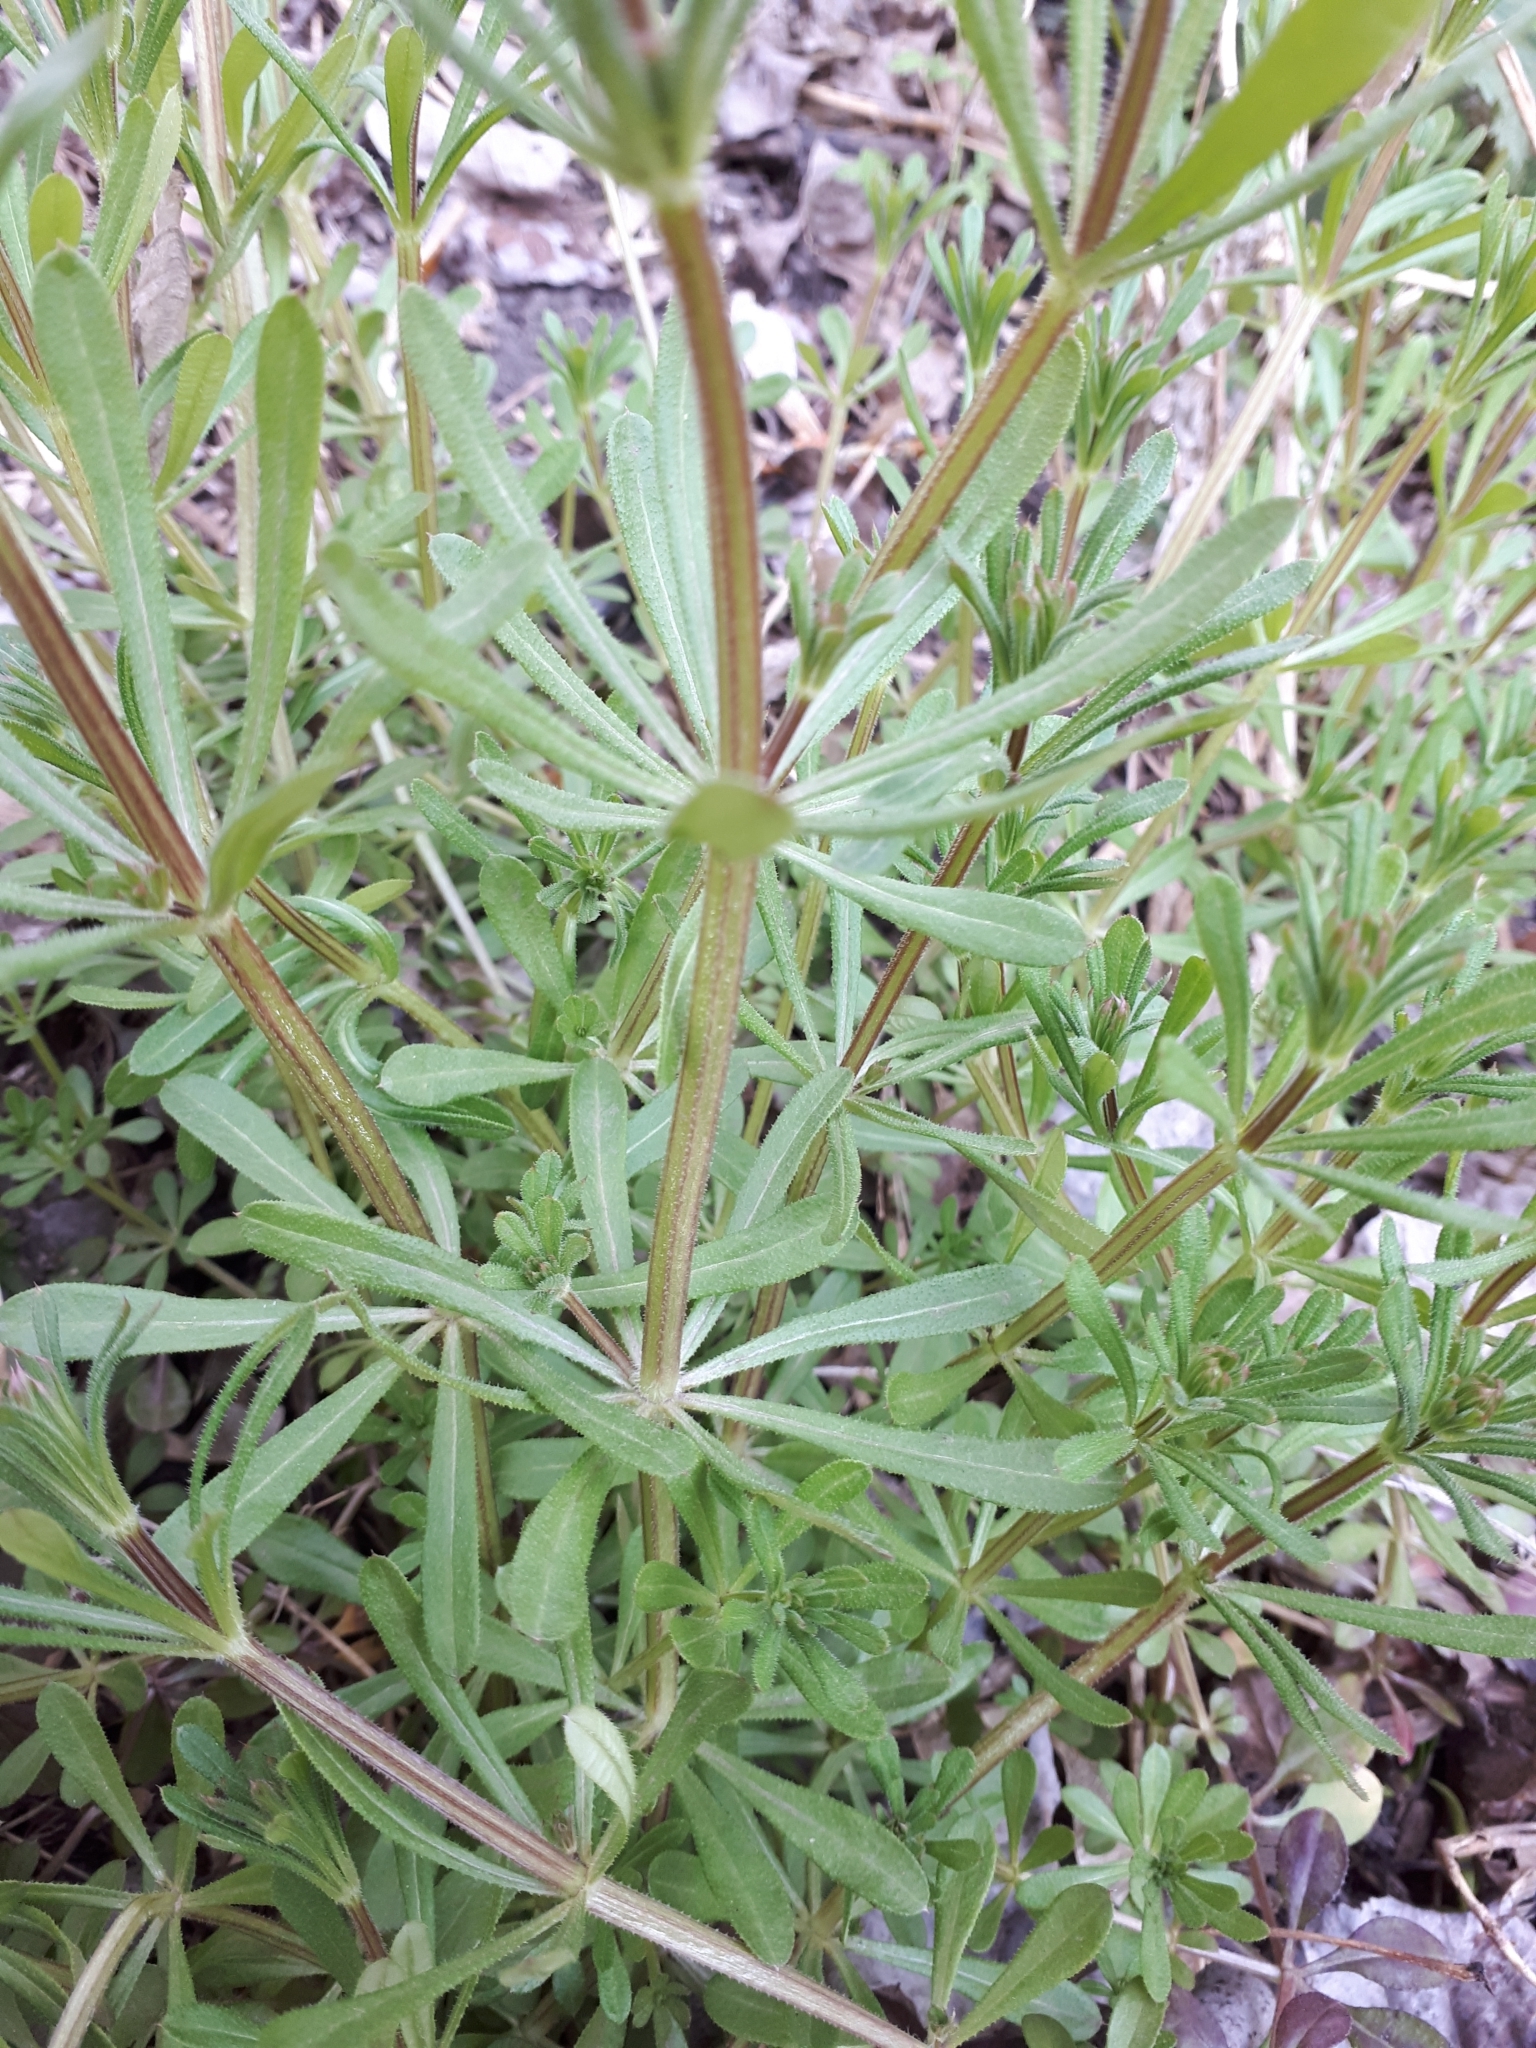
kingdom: Plantae
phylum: Tracheophyta
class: Magnoliopsida
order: Gentianales
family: Rubiaceae
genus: Galium
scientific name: Galium aparine
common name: Cleavers
